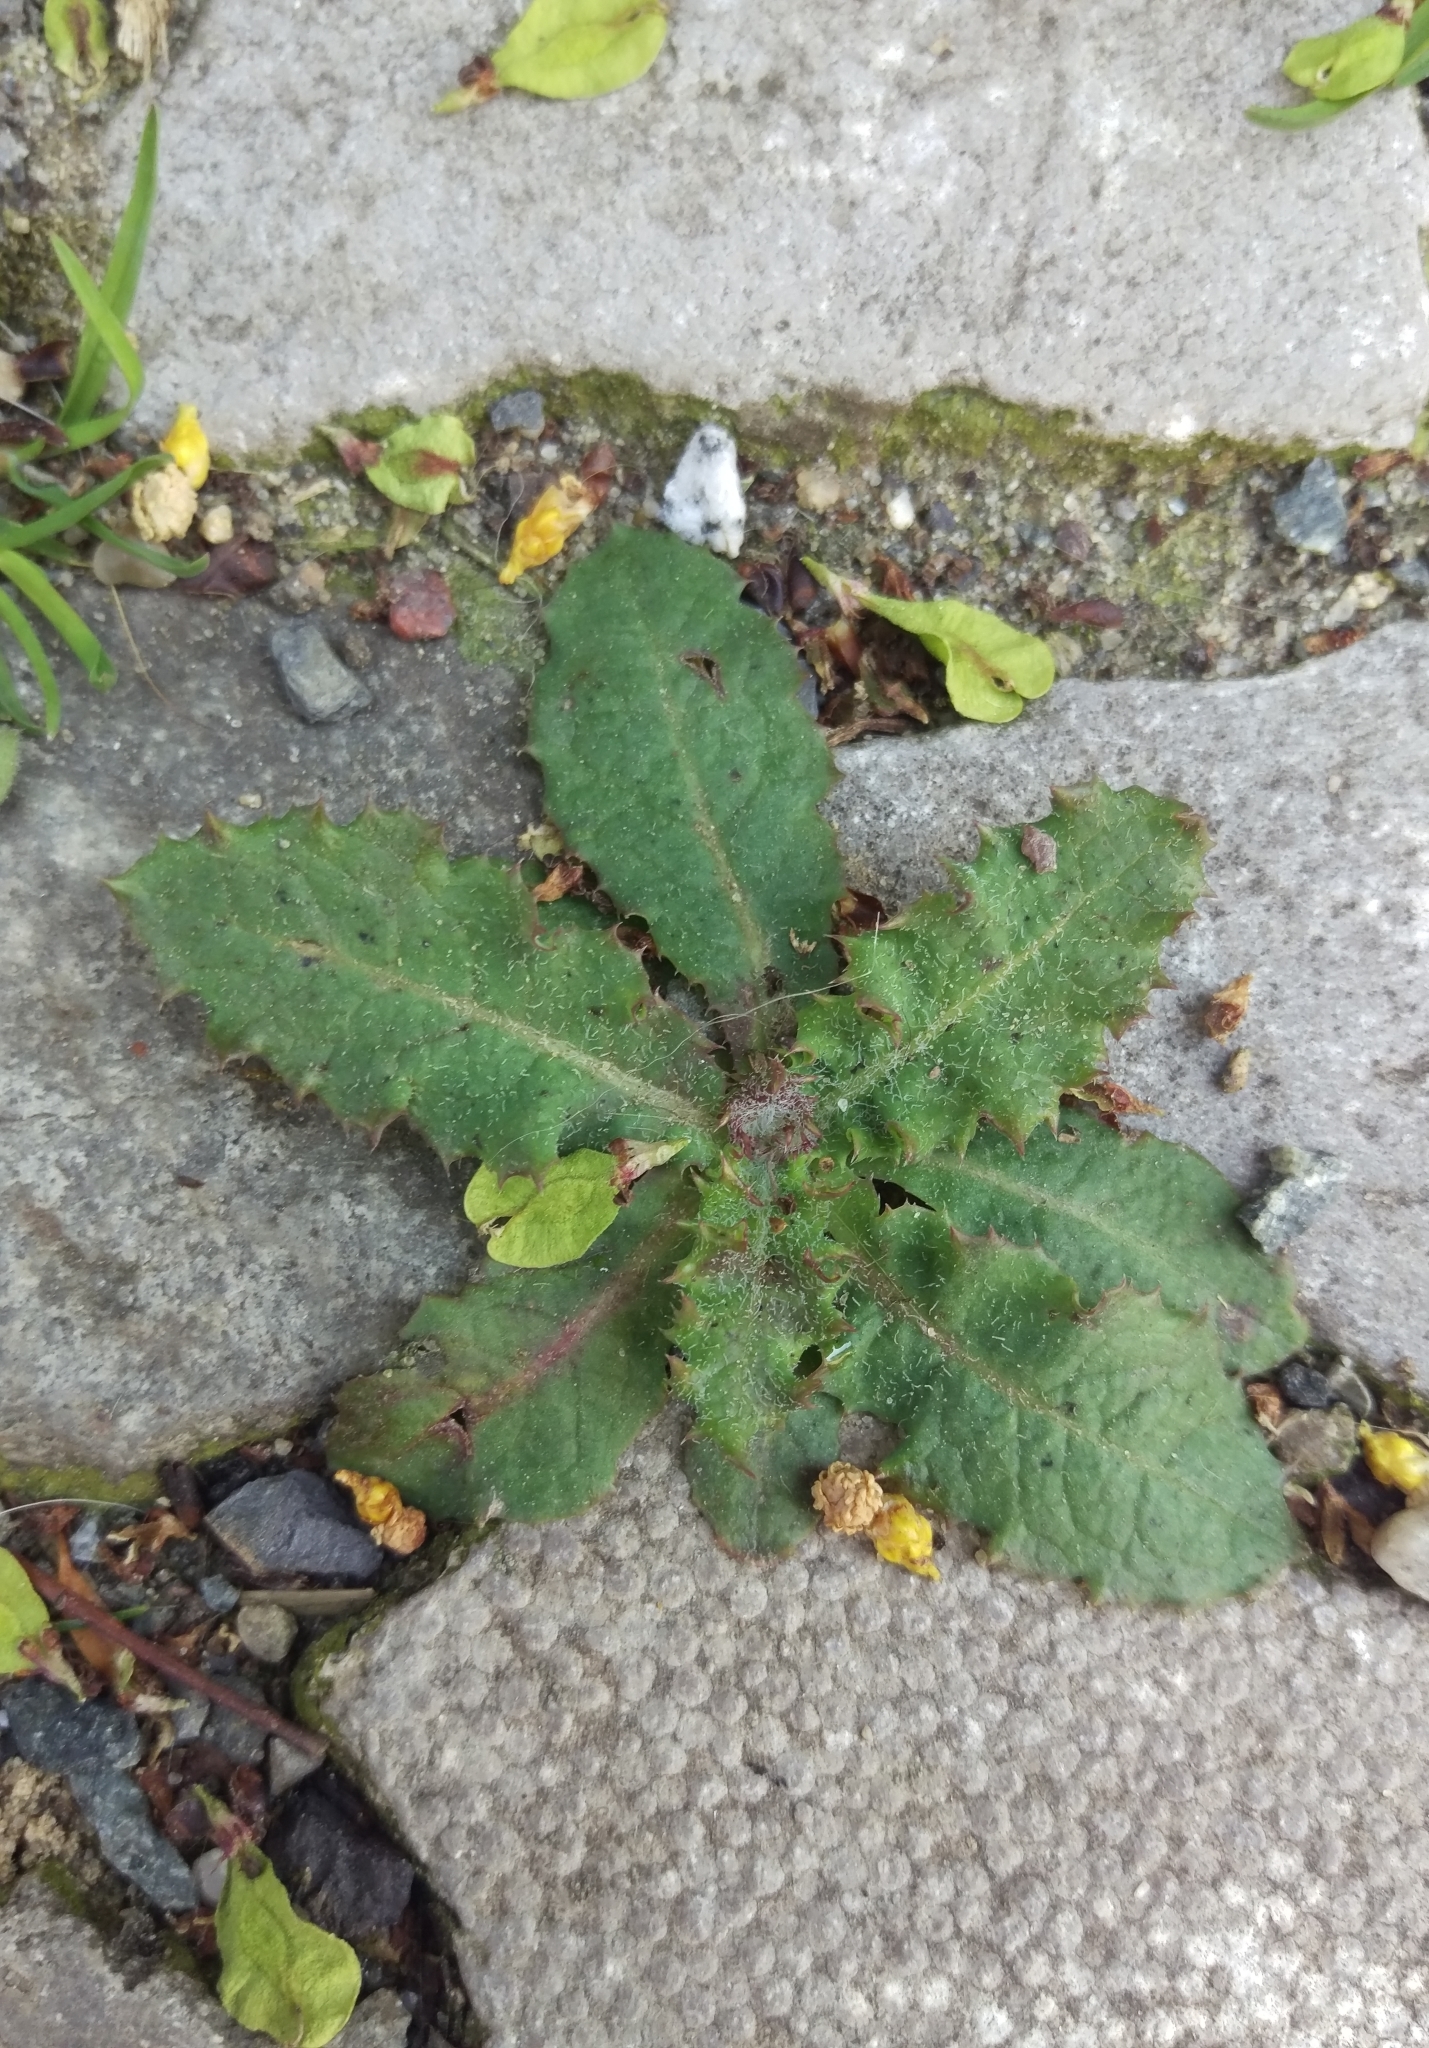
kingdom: Plantae
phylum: Tracheophyta
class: Magnoliopsida
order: Asterales
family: Asteraceae
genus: Sonchus
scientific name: Sonchus asper
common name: Prickly sow-thistle
